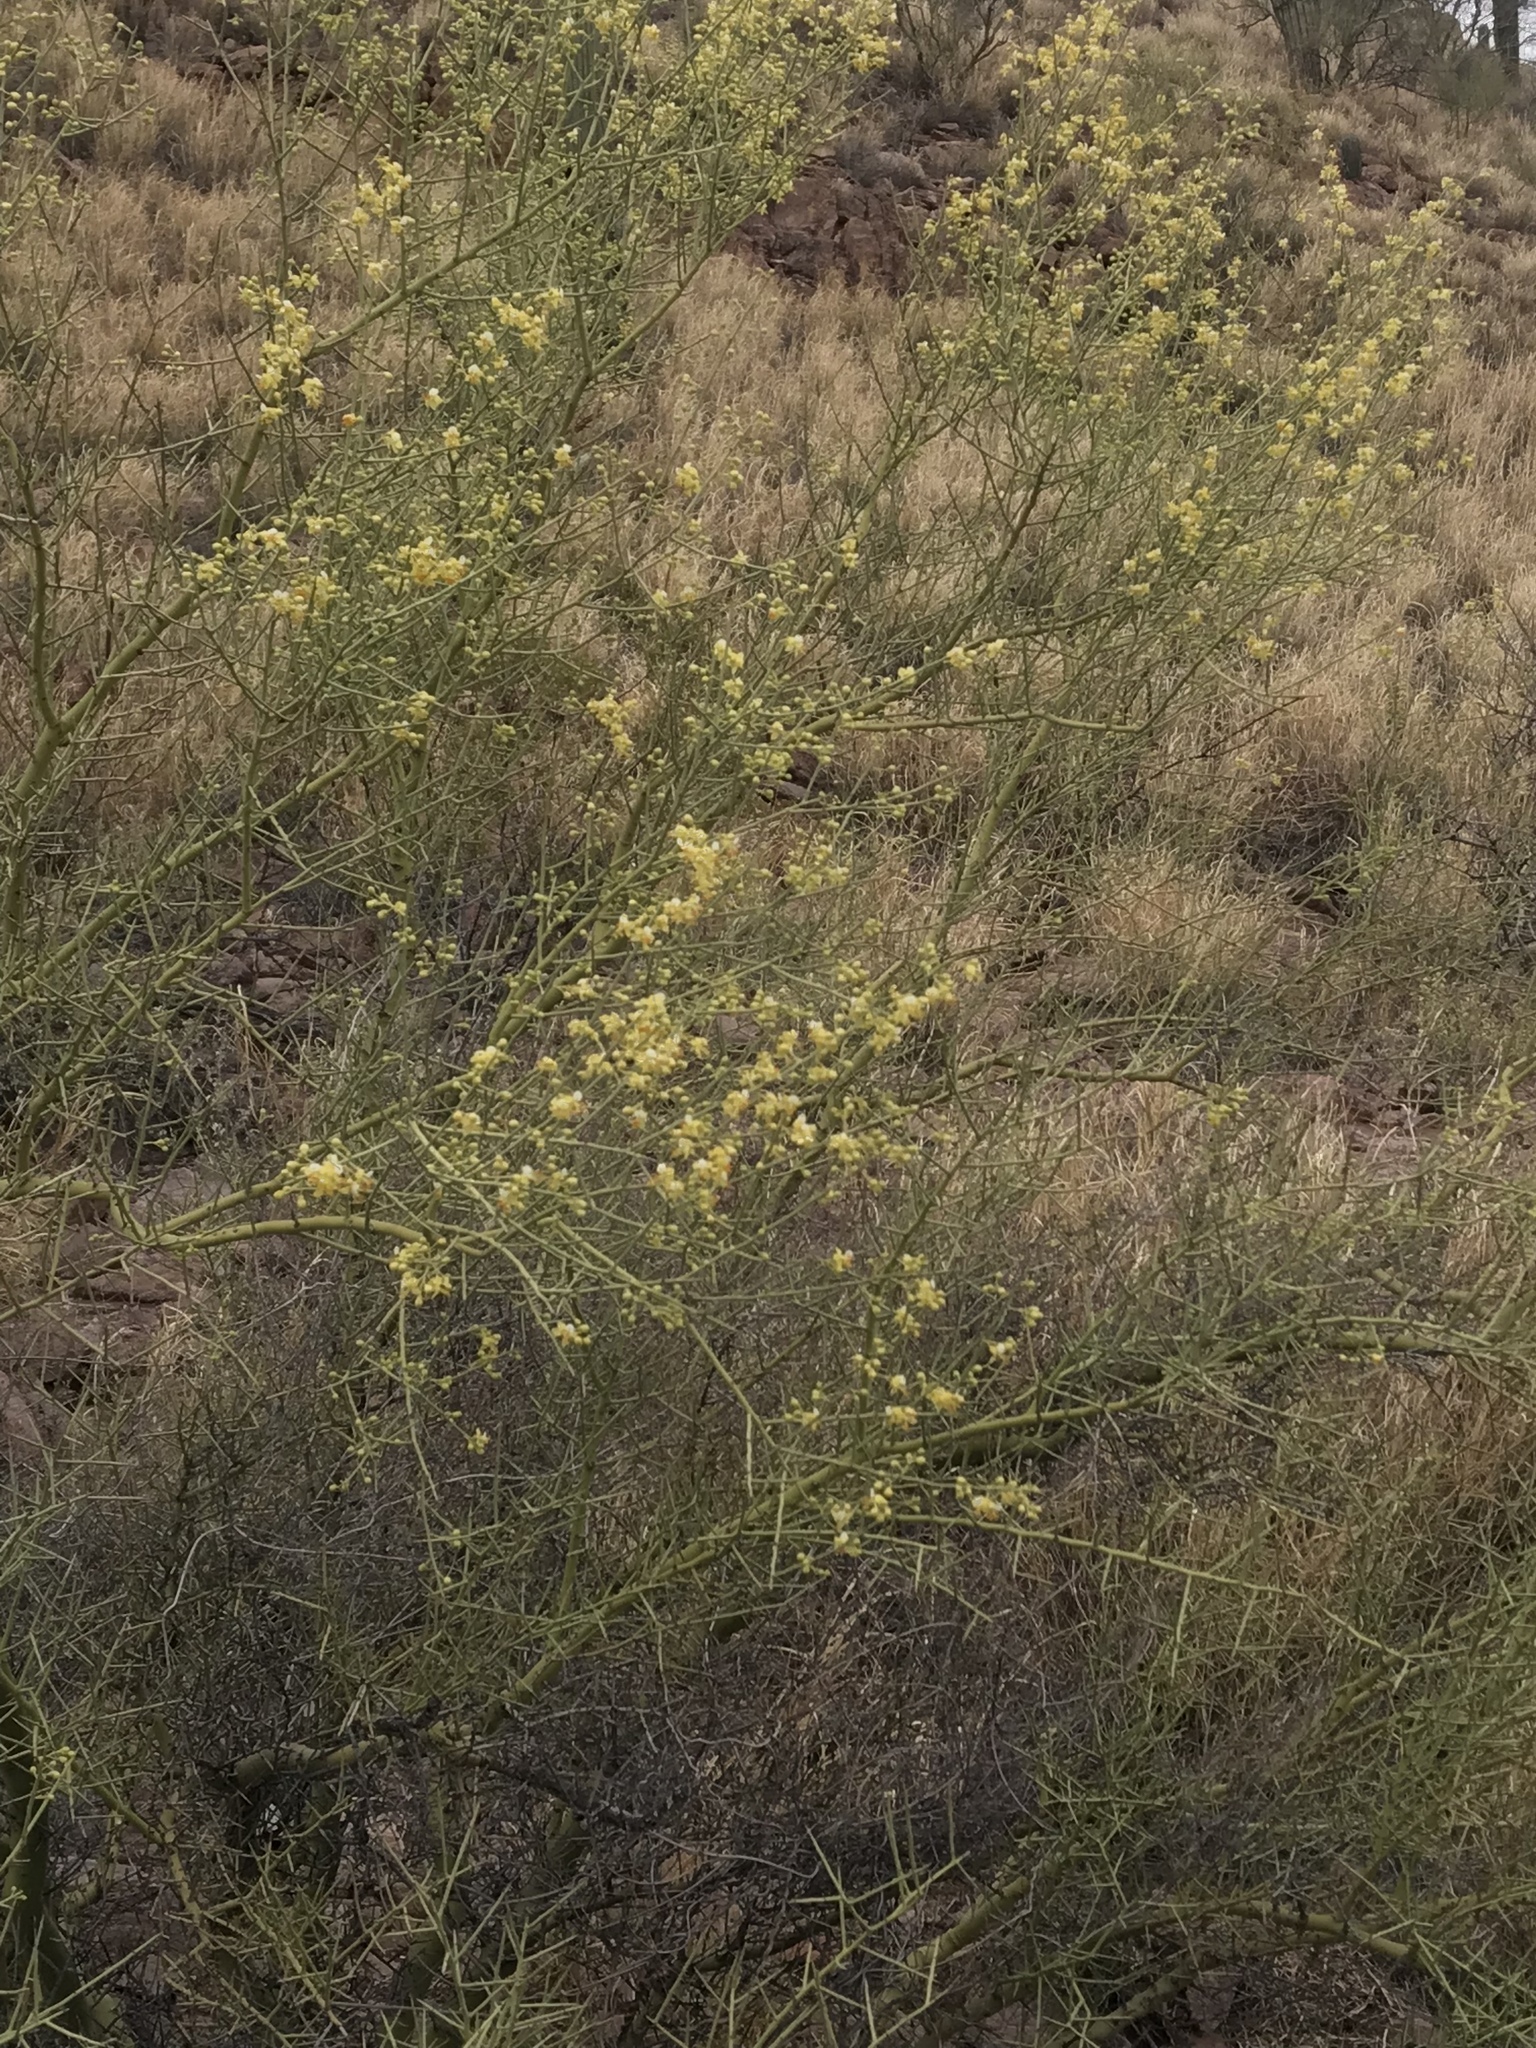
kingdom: Plantae
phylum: Tracheophyta
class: Magnoliopsida
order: Fabales
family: Fabaceae
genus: Parkinsonia
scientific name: Parkinsonia microphylla
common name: Yellow paloverde
